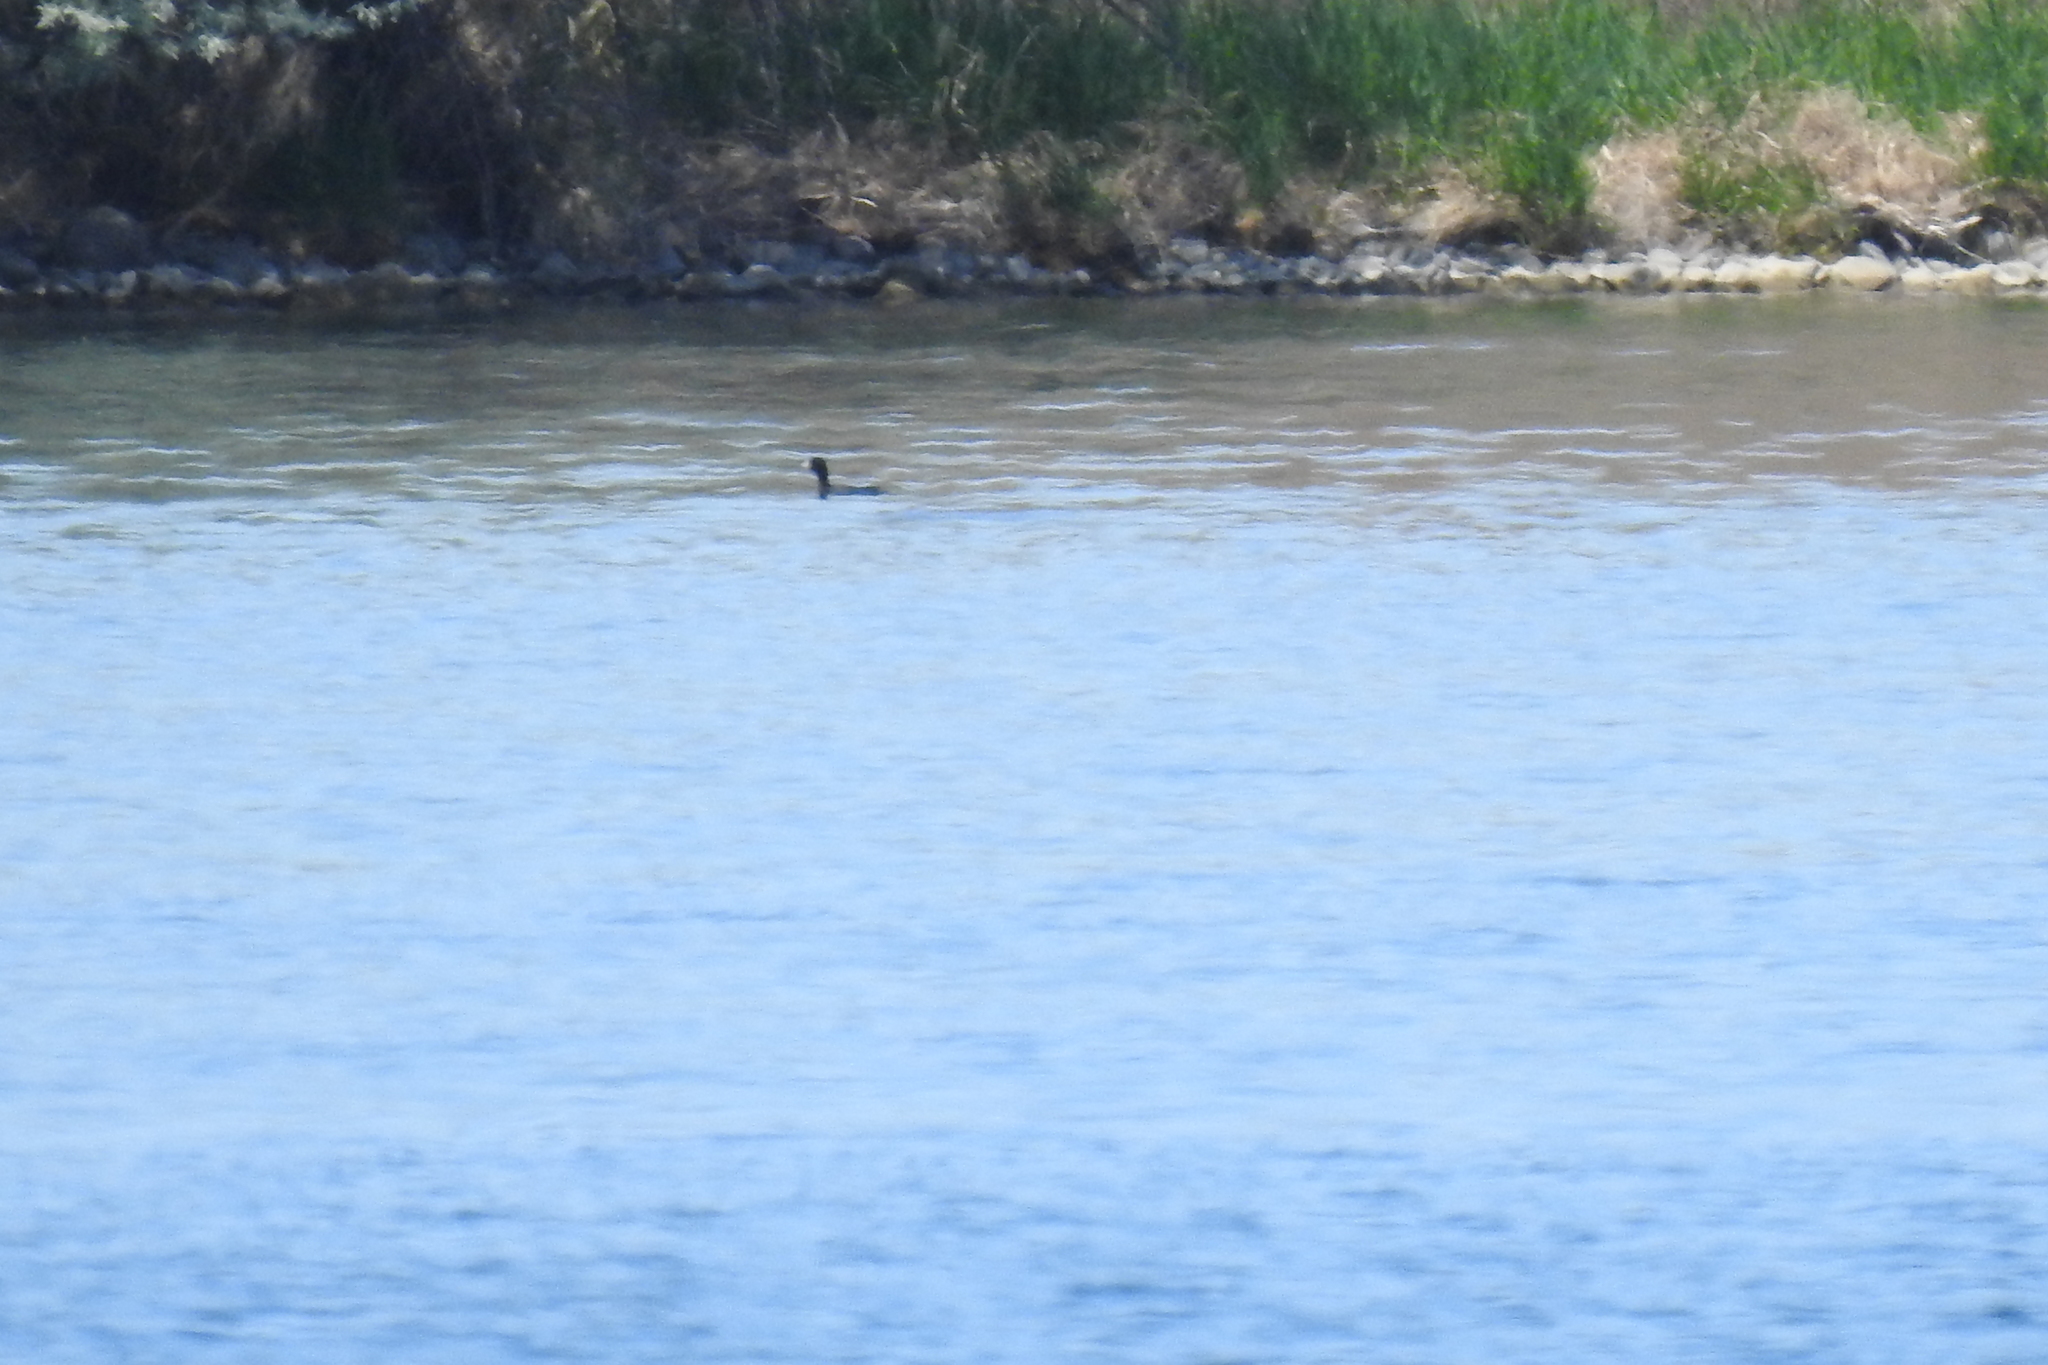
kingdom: Animalia
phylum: Chordata
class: Aves
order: Gruiformes
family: Rallidae
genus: Fulica
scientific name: Fulica americana
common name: American coot
